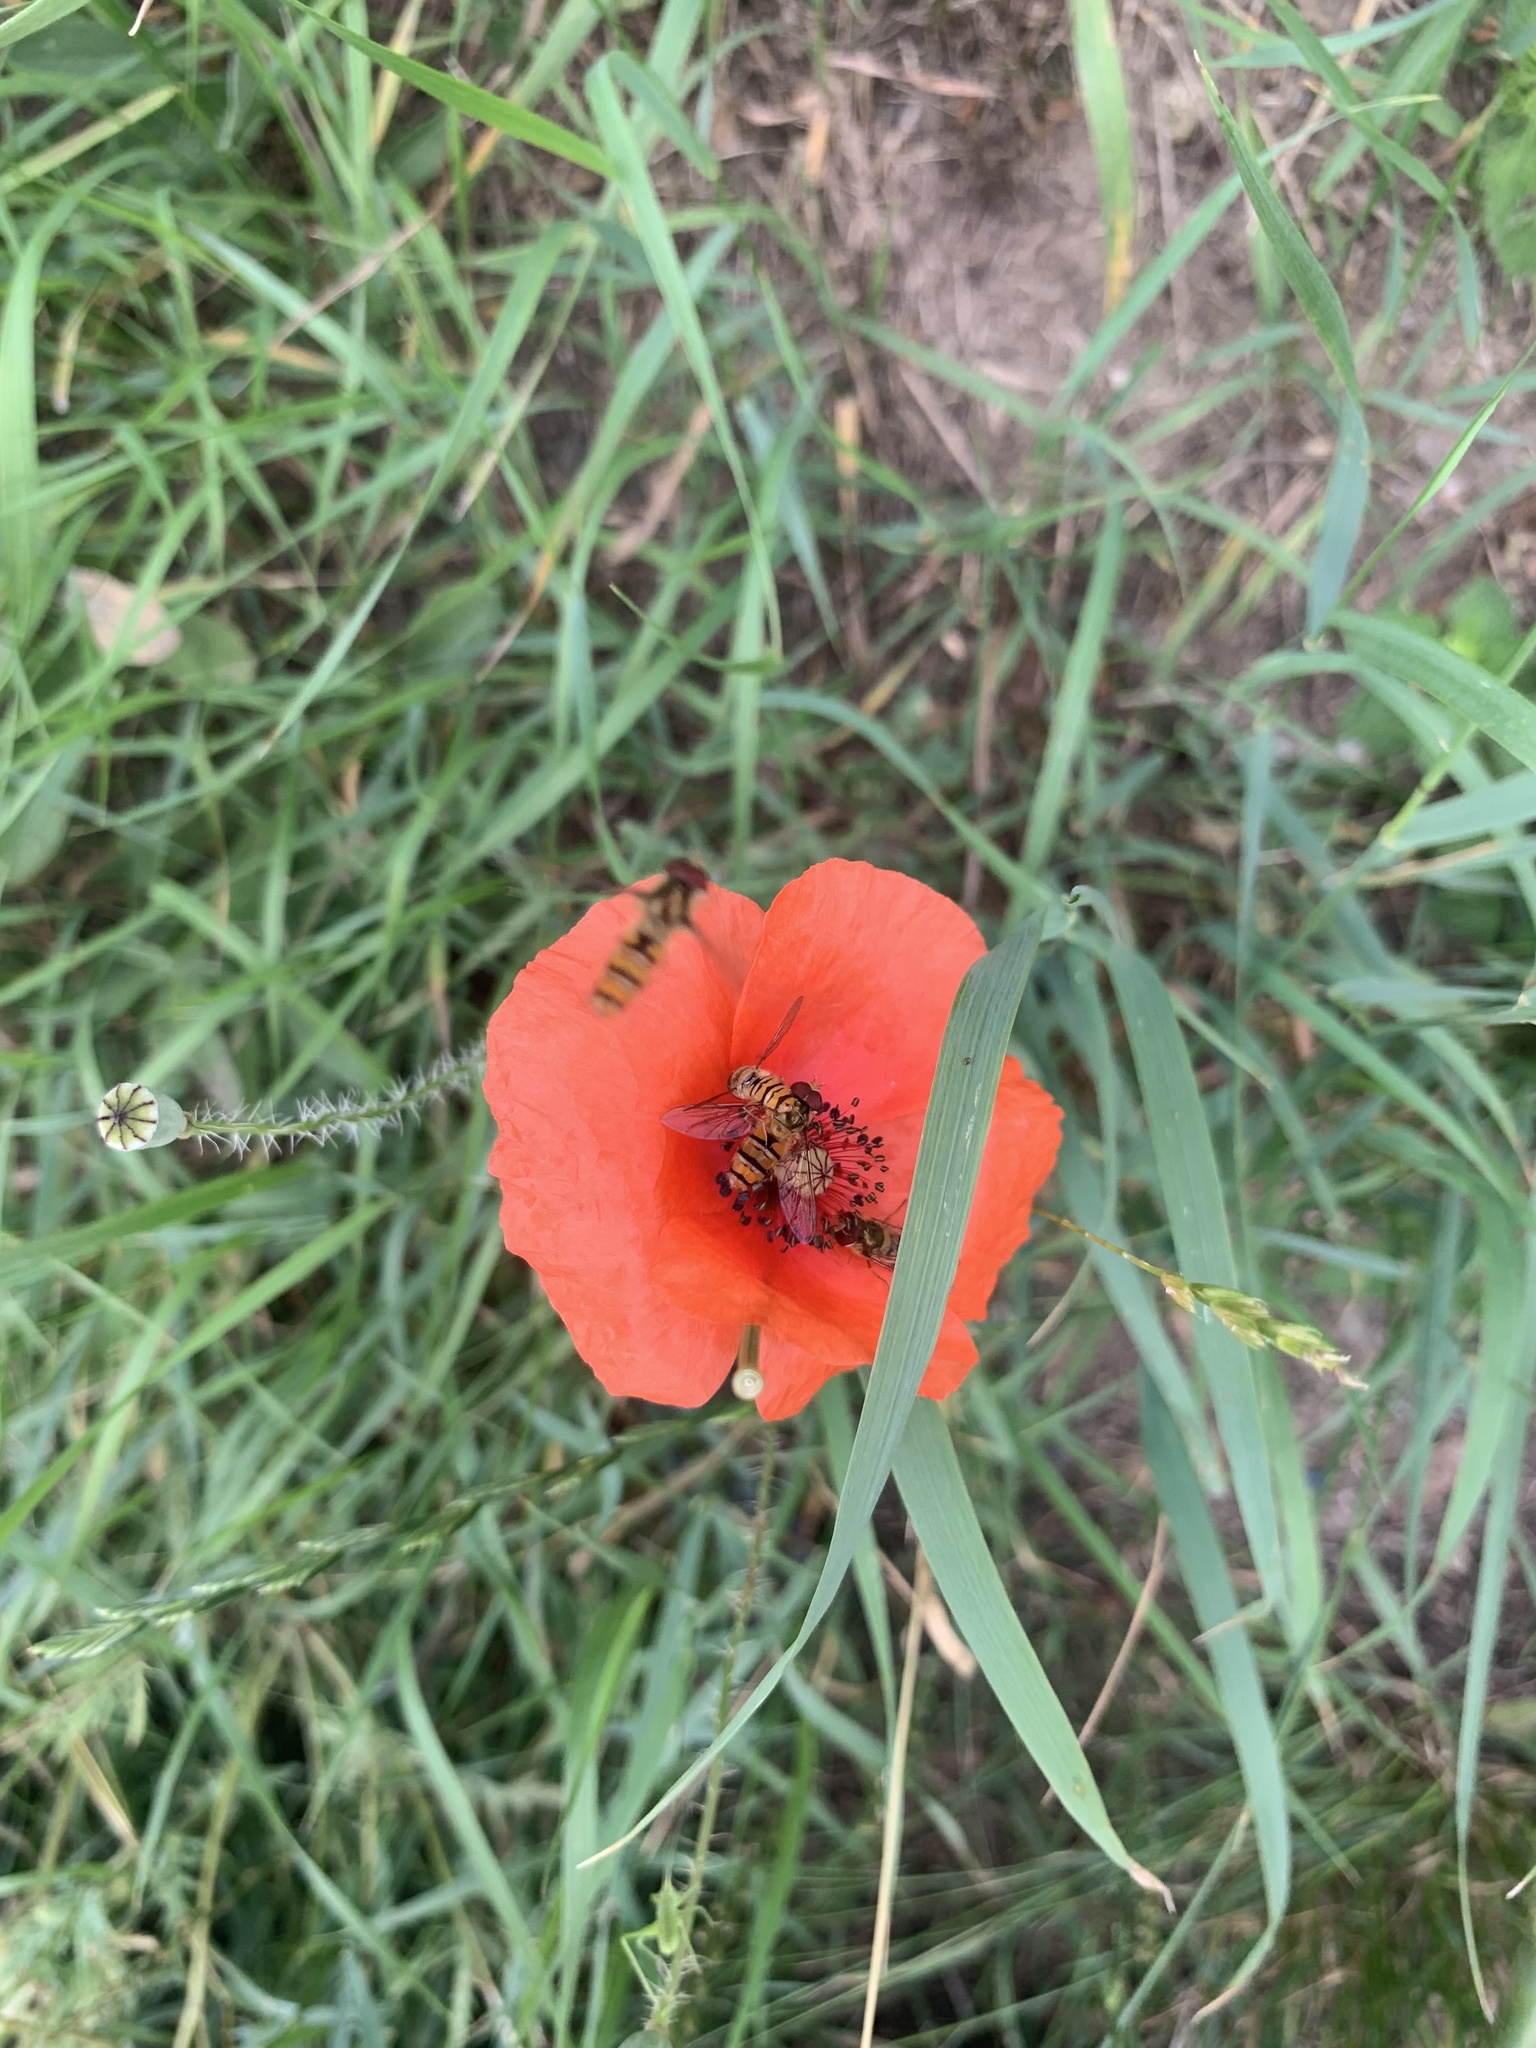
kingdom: Animalia
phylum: Arthropoda
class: Insecta
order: Diptera
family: Syrphidae
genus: Episyrphus
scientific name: Episyrphus balteatus
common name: Marmalade hoverfly
